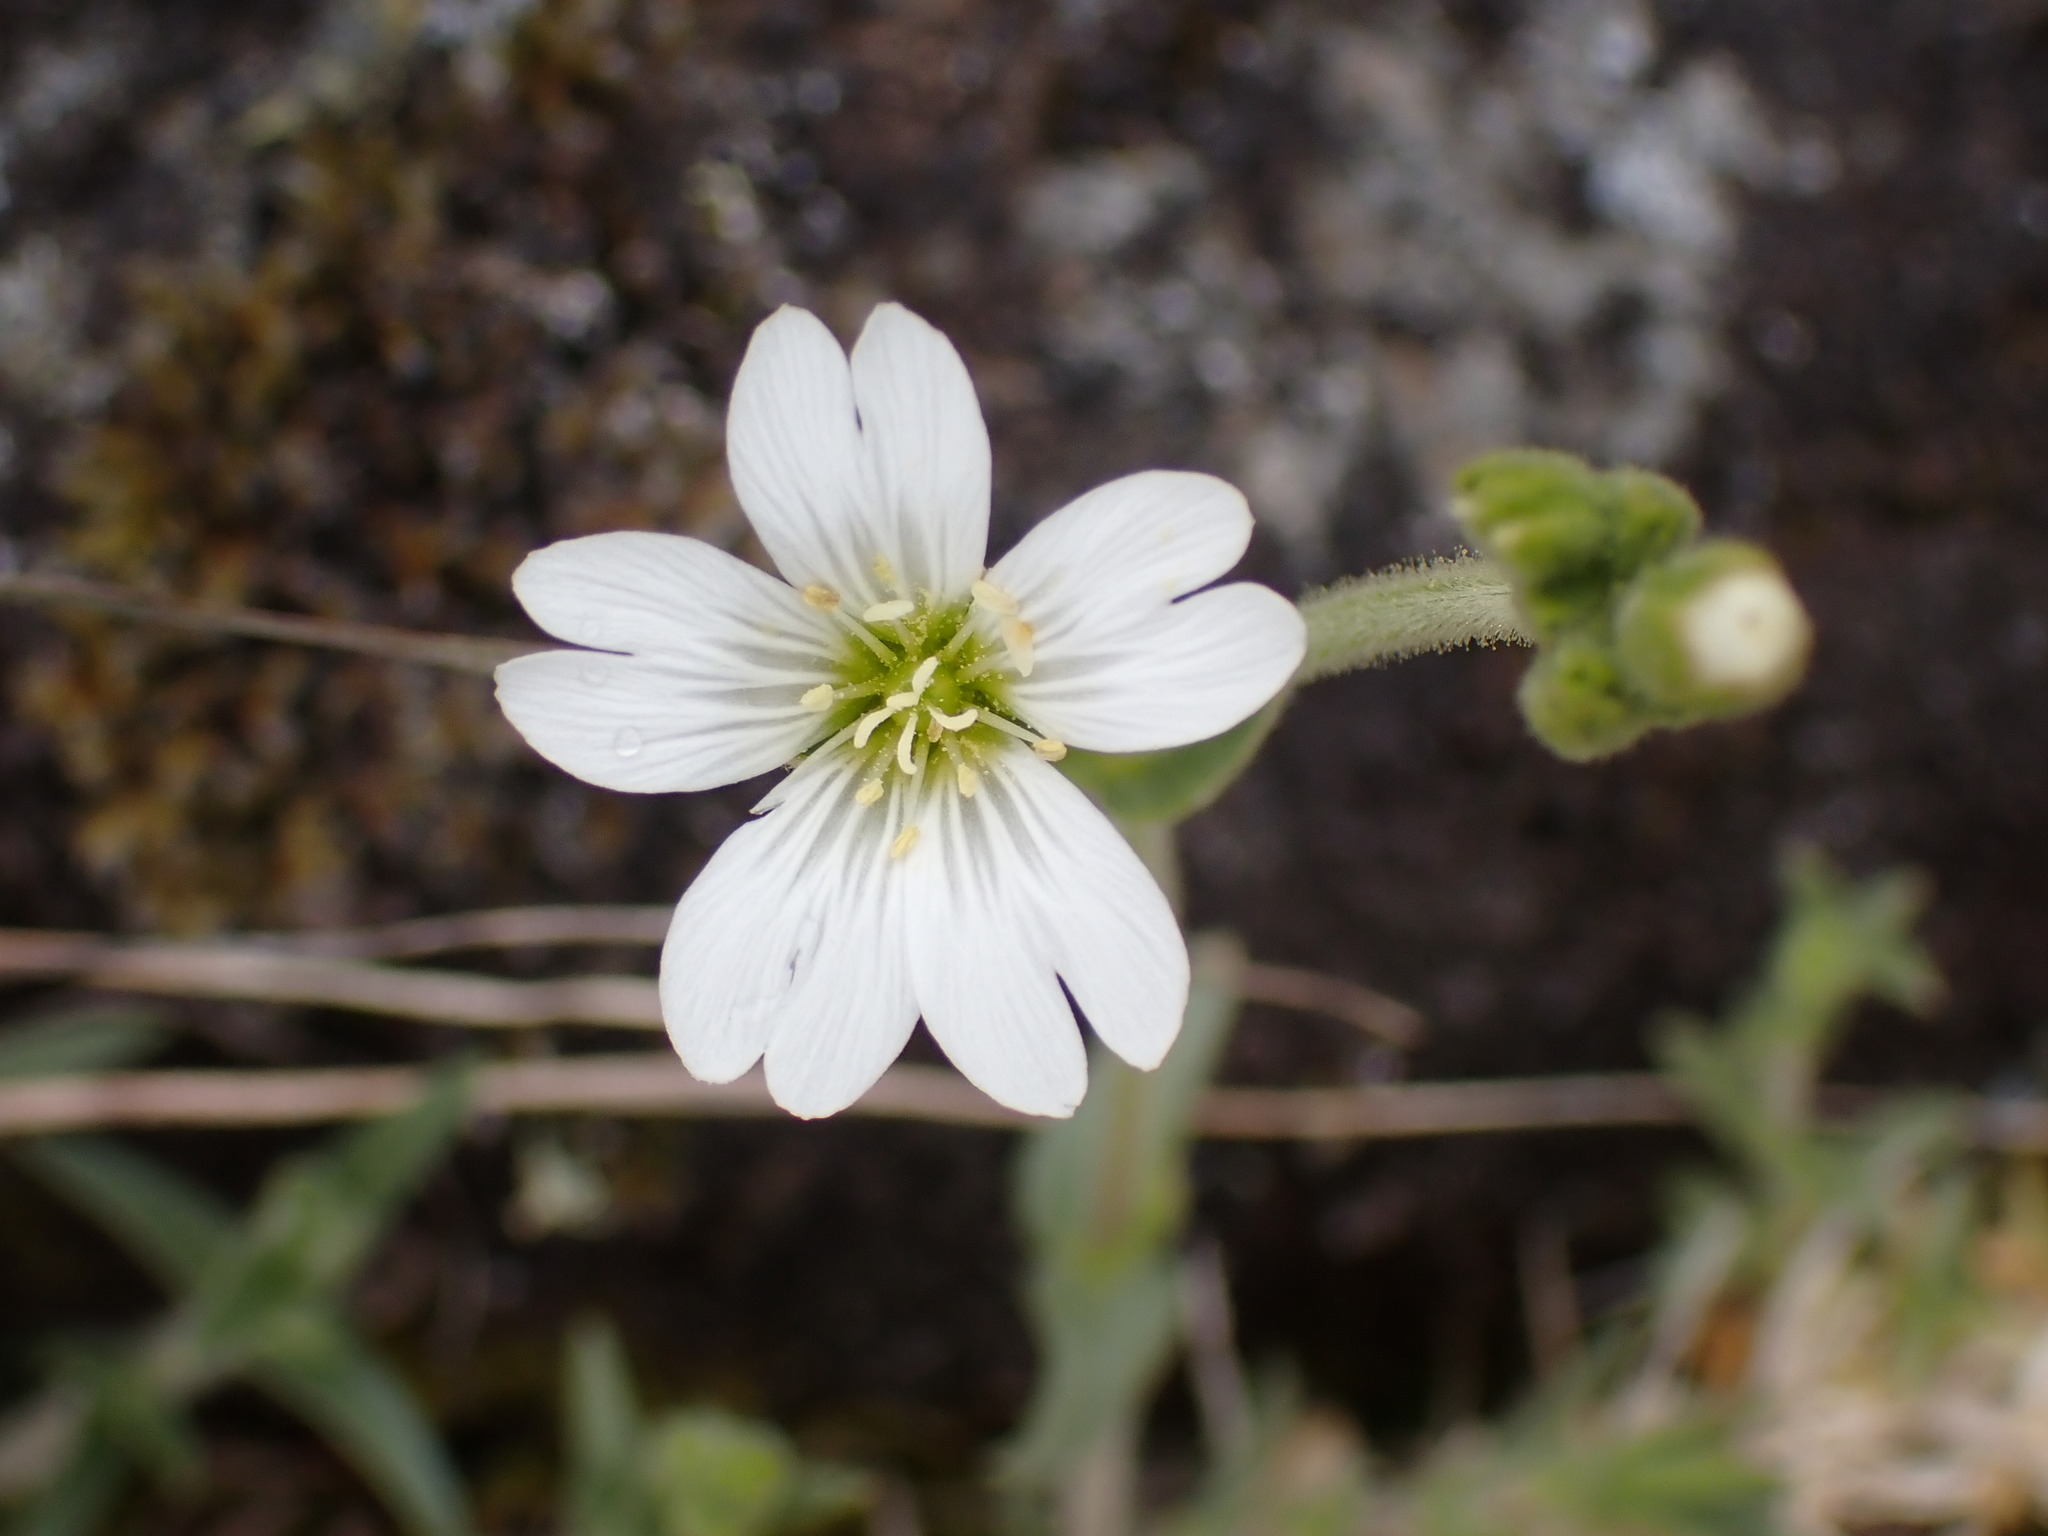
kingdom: Plantae
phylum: Tracheophyta
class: Magnoliopsida
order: Caryophyllales
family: Caryophyllaceae
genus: Cerastium
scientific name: Cerastium arvense
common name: Field mouse-ear
